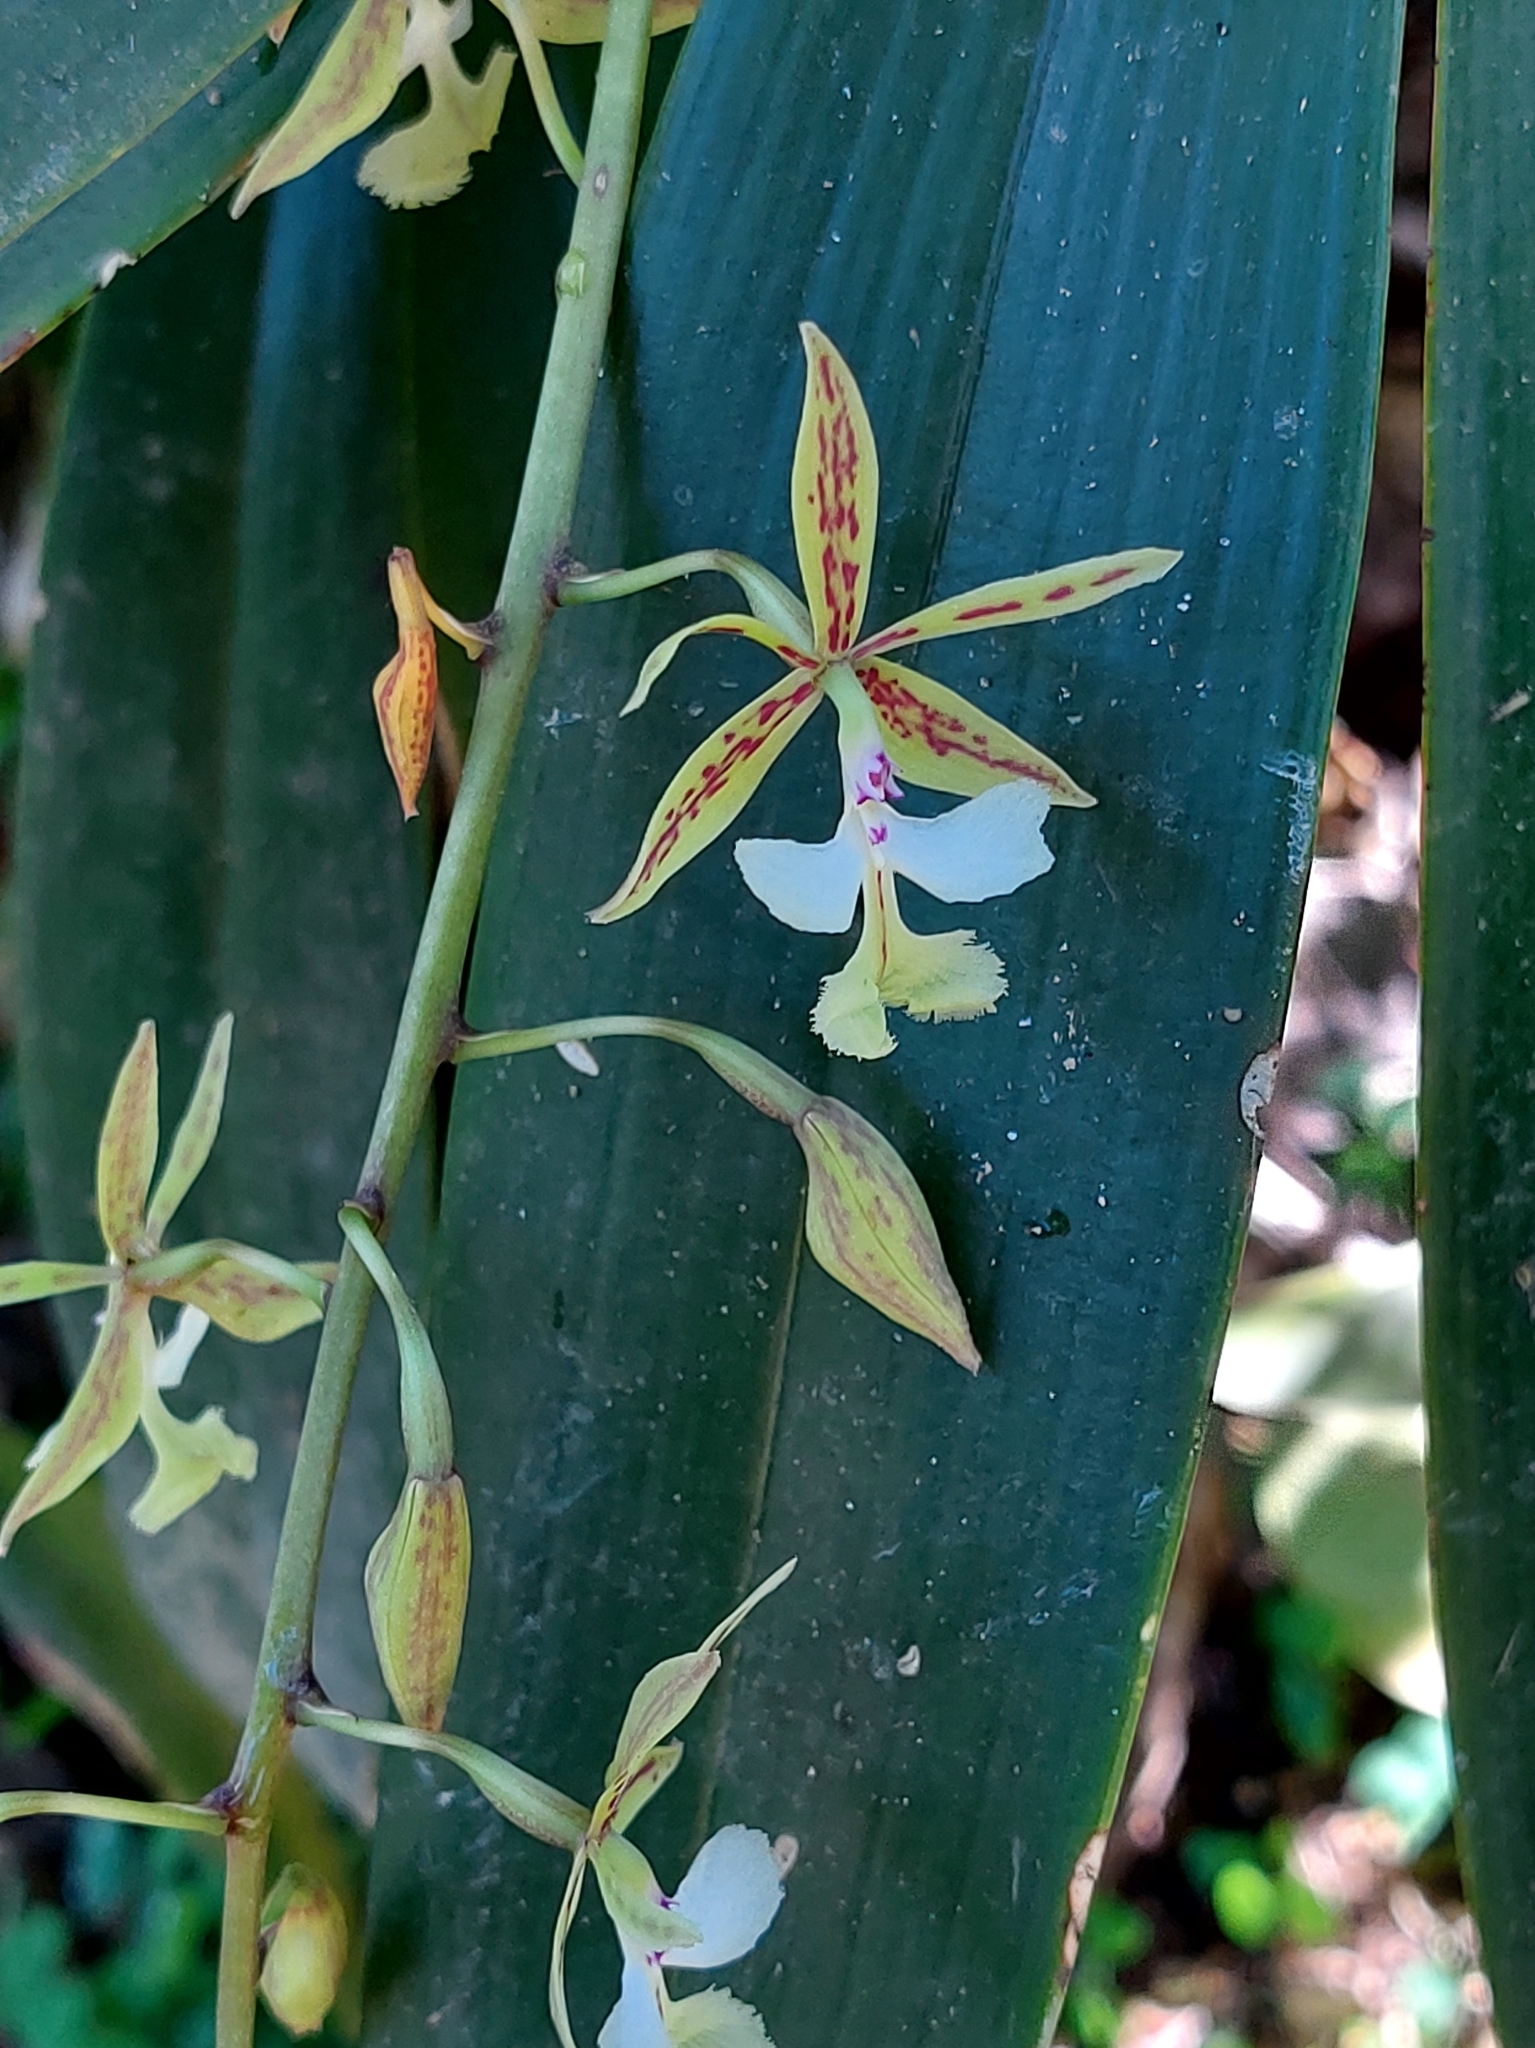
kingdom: Plantae
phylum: Tracheophyta
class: Liliopsida
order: Asparagales
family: Orchidaceae
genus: Epidendrum
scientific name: Epidendrum stamfordianum
